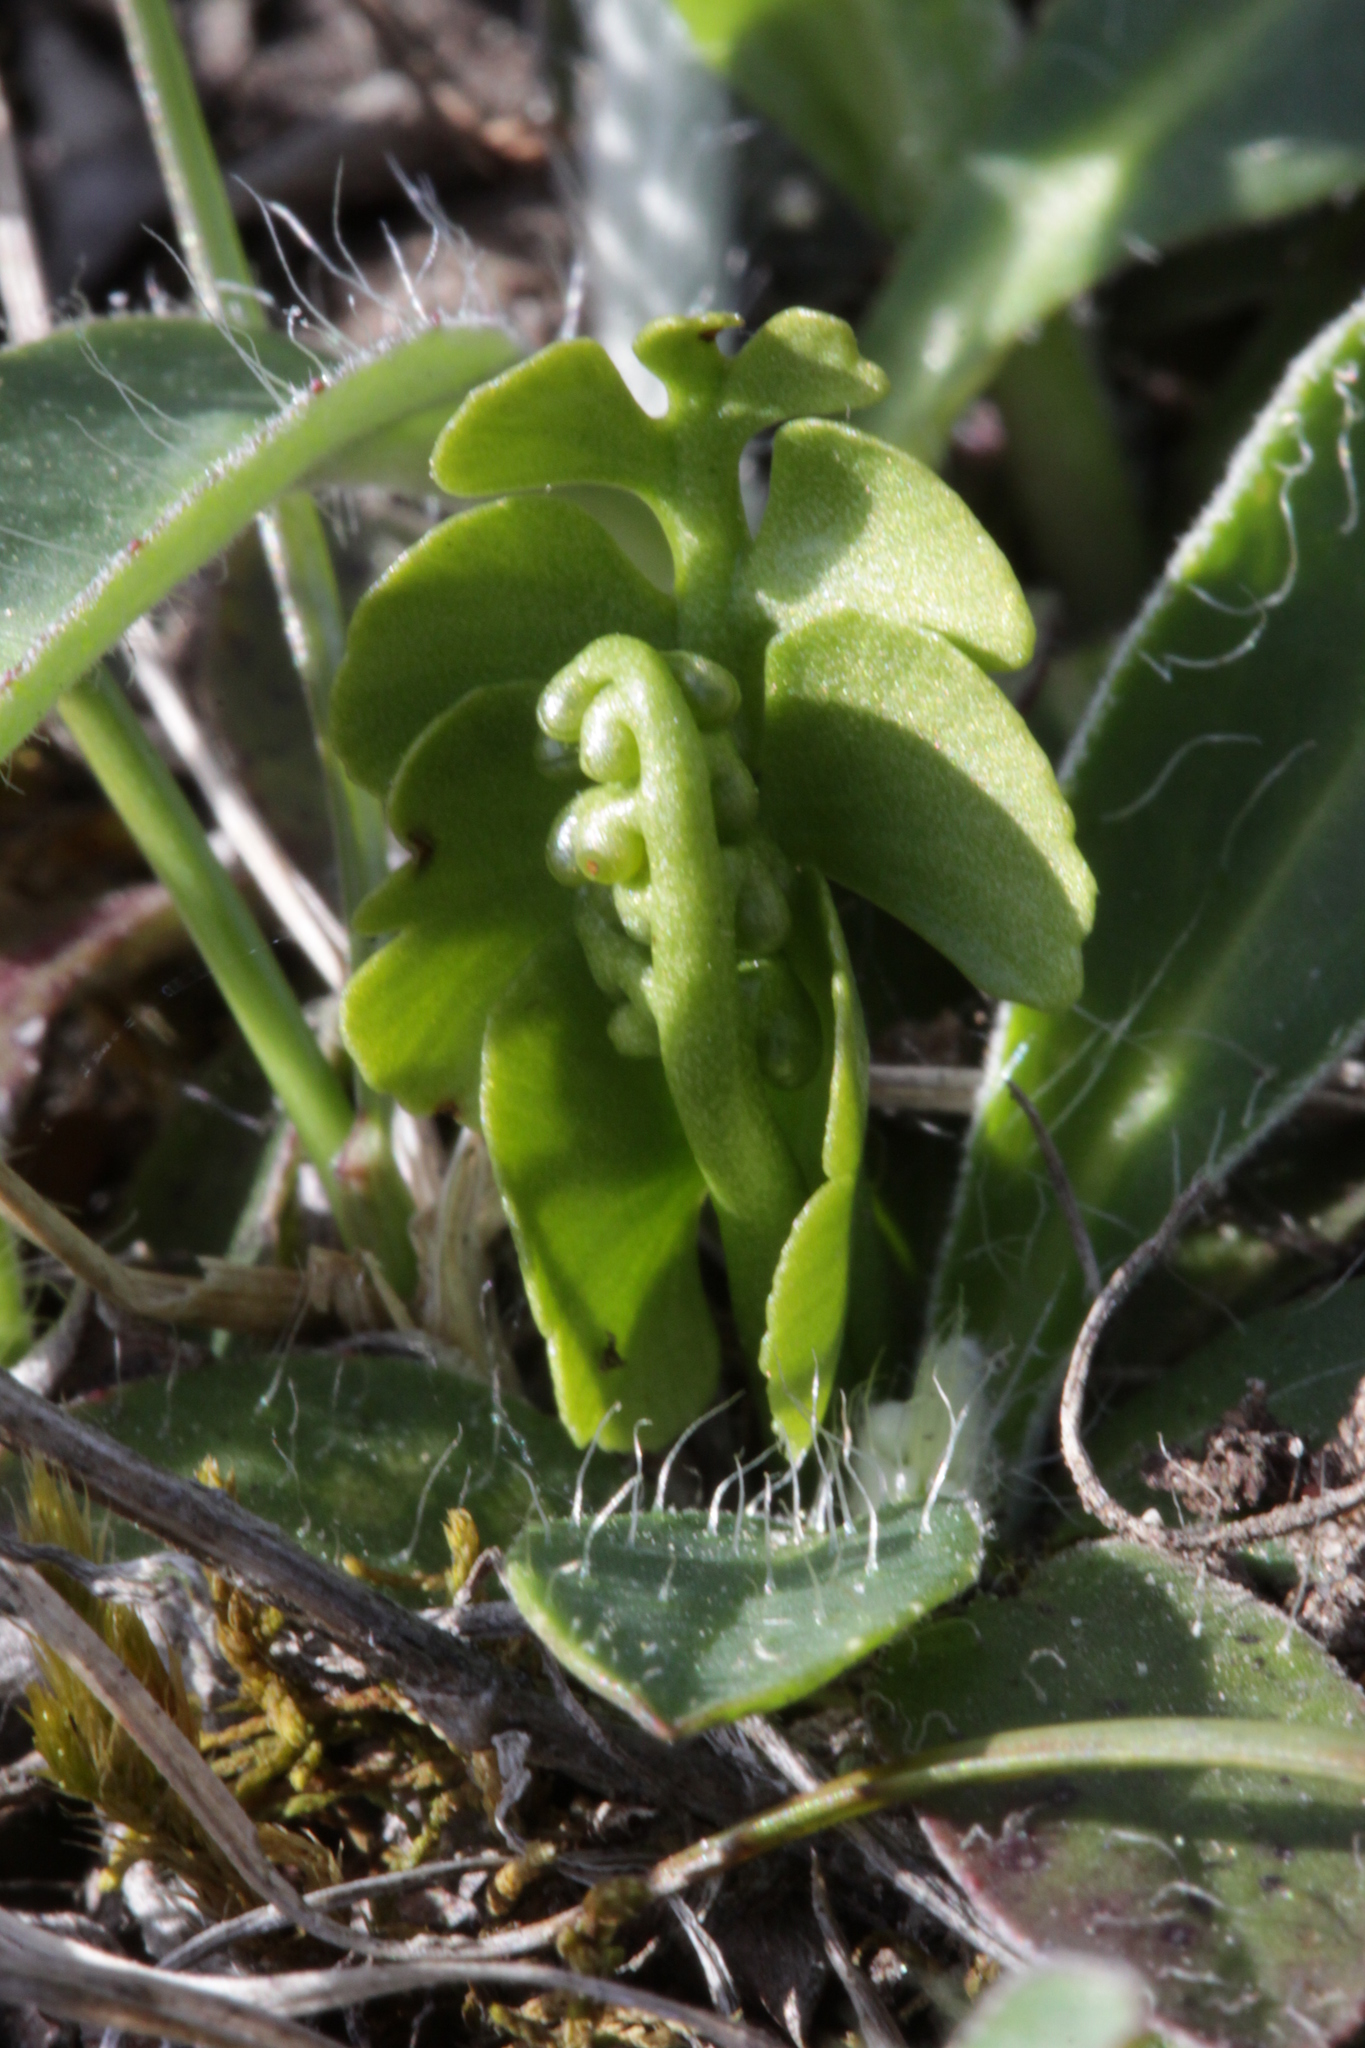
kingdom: Plantae
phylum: Tracheophyta
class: Polypodiopsida
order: Ophioglossales
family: Ophioglossaceae
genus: Botrychium
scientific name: Botrychium lunaria
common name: Moonwort
